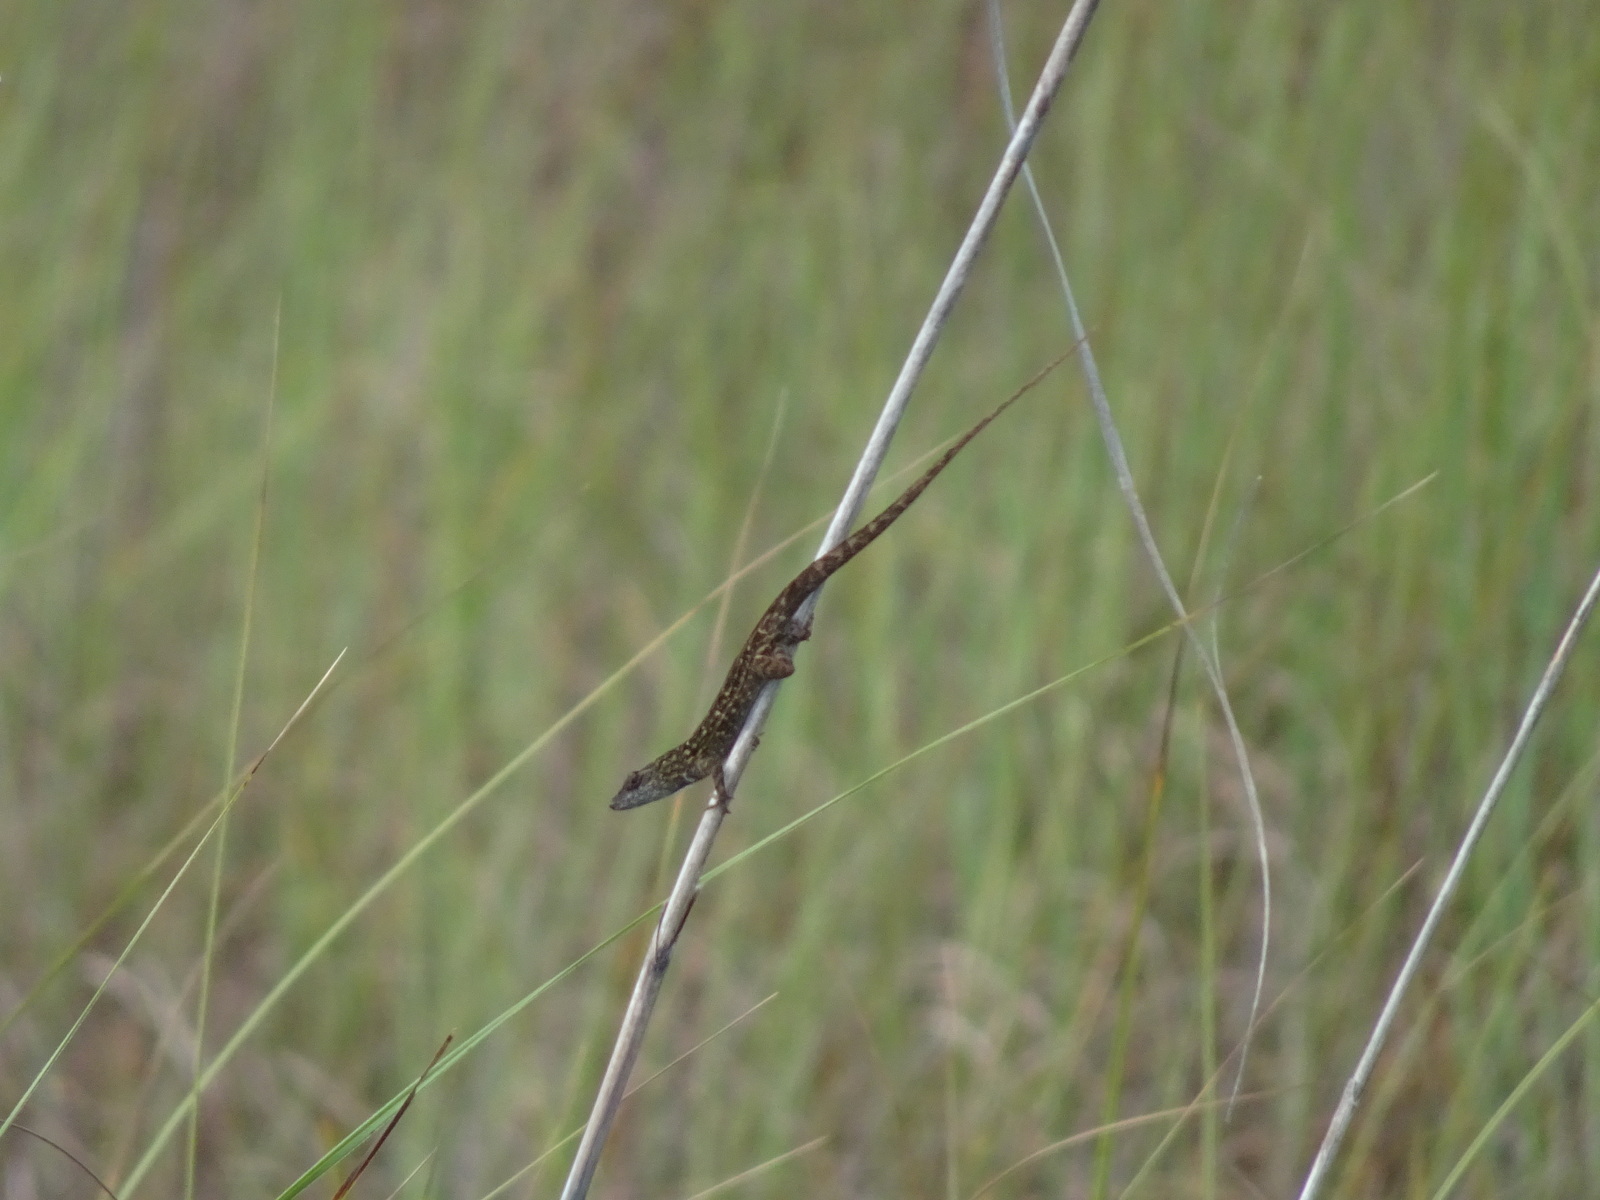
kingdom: Animalia
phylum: Chordata
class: Squamata
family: Dactyloidae
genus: Anolis
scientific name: Anolis sagrei
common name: Brown anole
